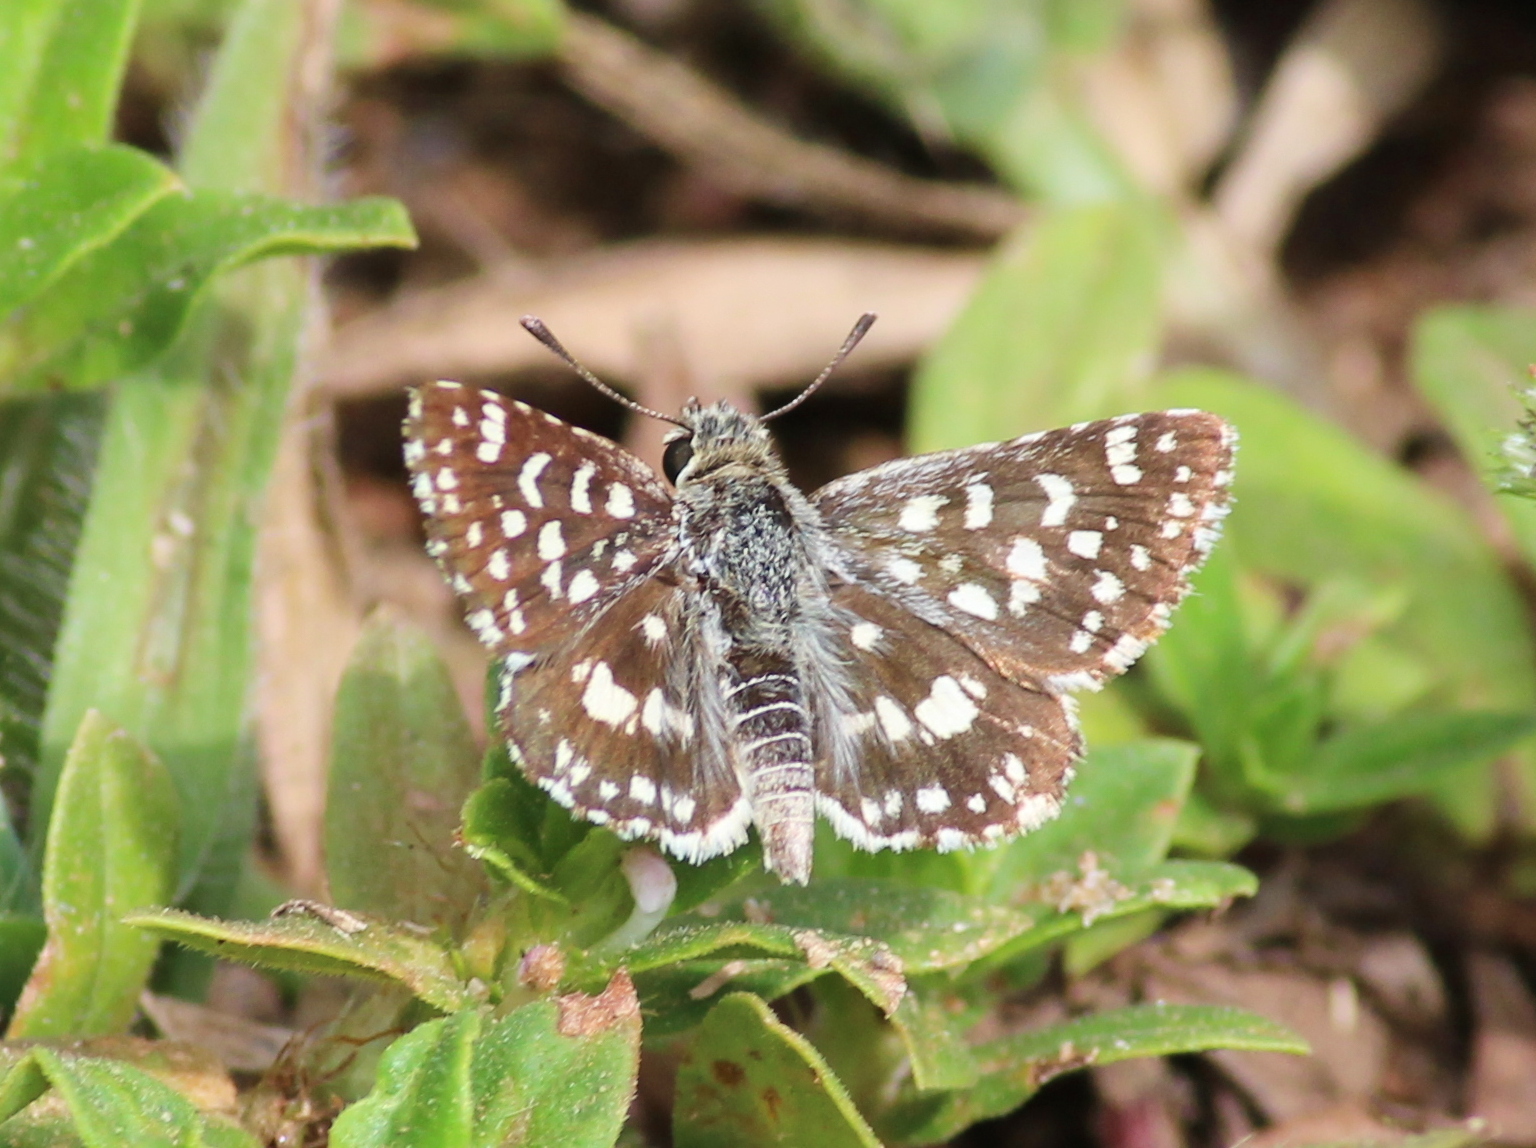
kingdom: Animalia
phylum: Arthropoda
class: Insecta
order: Lepidoptera
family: Hesperiidae
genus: Spialia
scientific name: Spialia galba
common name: Indian skipper
